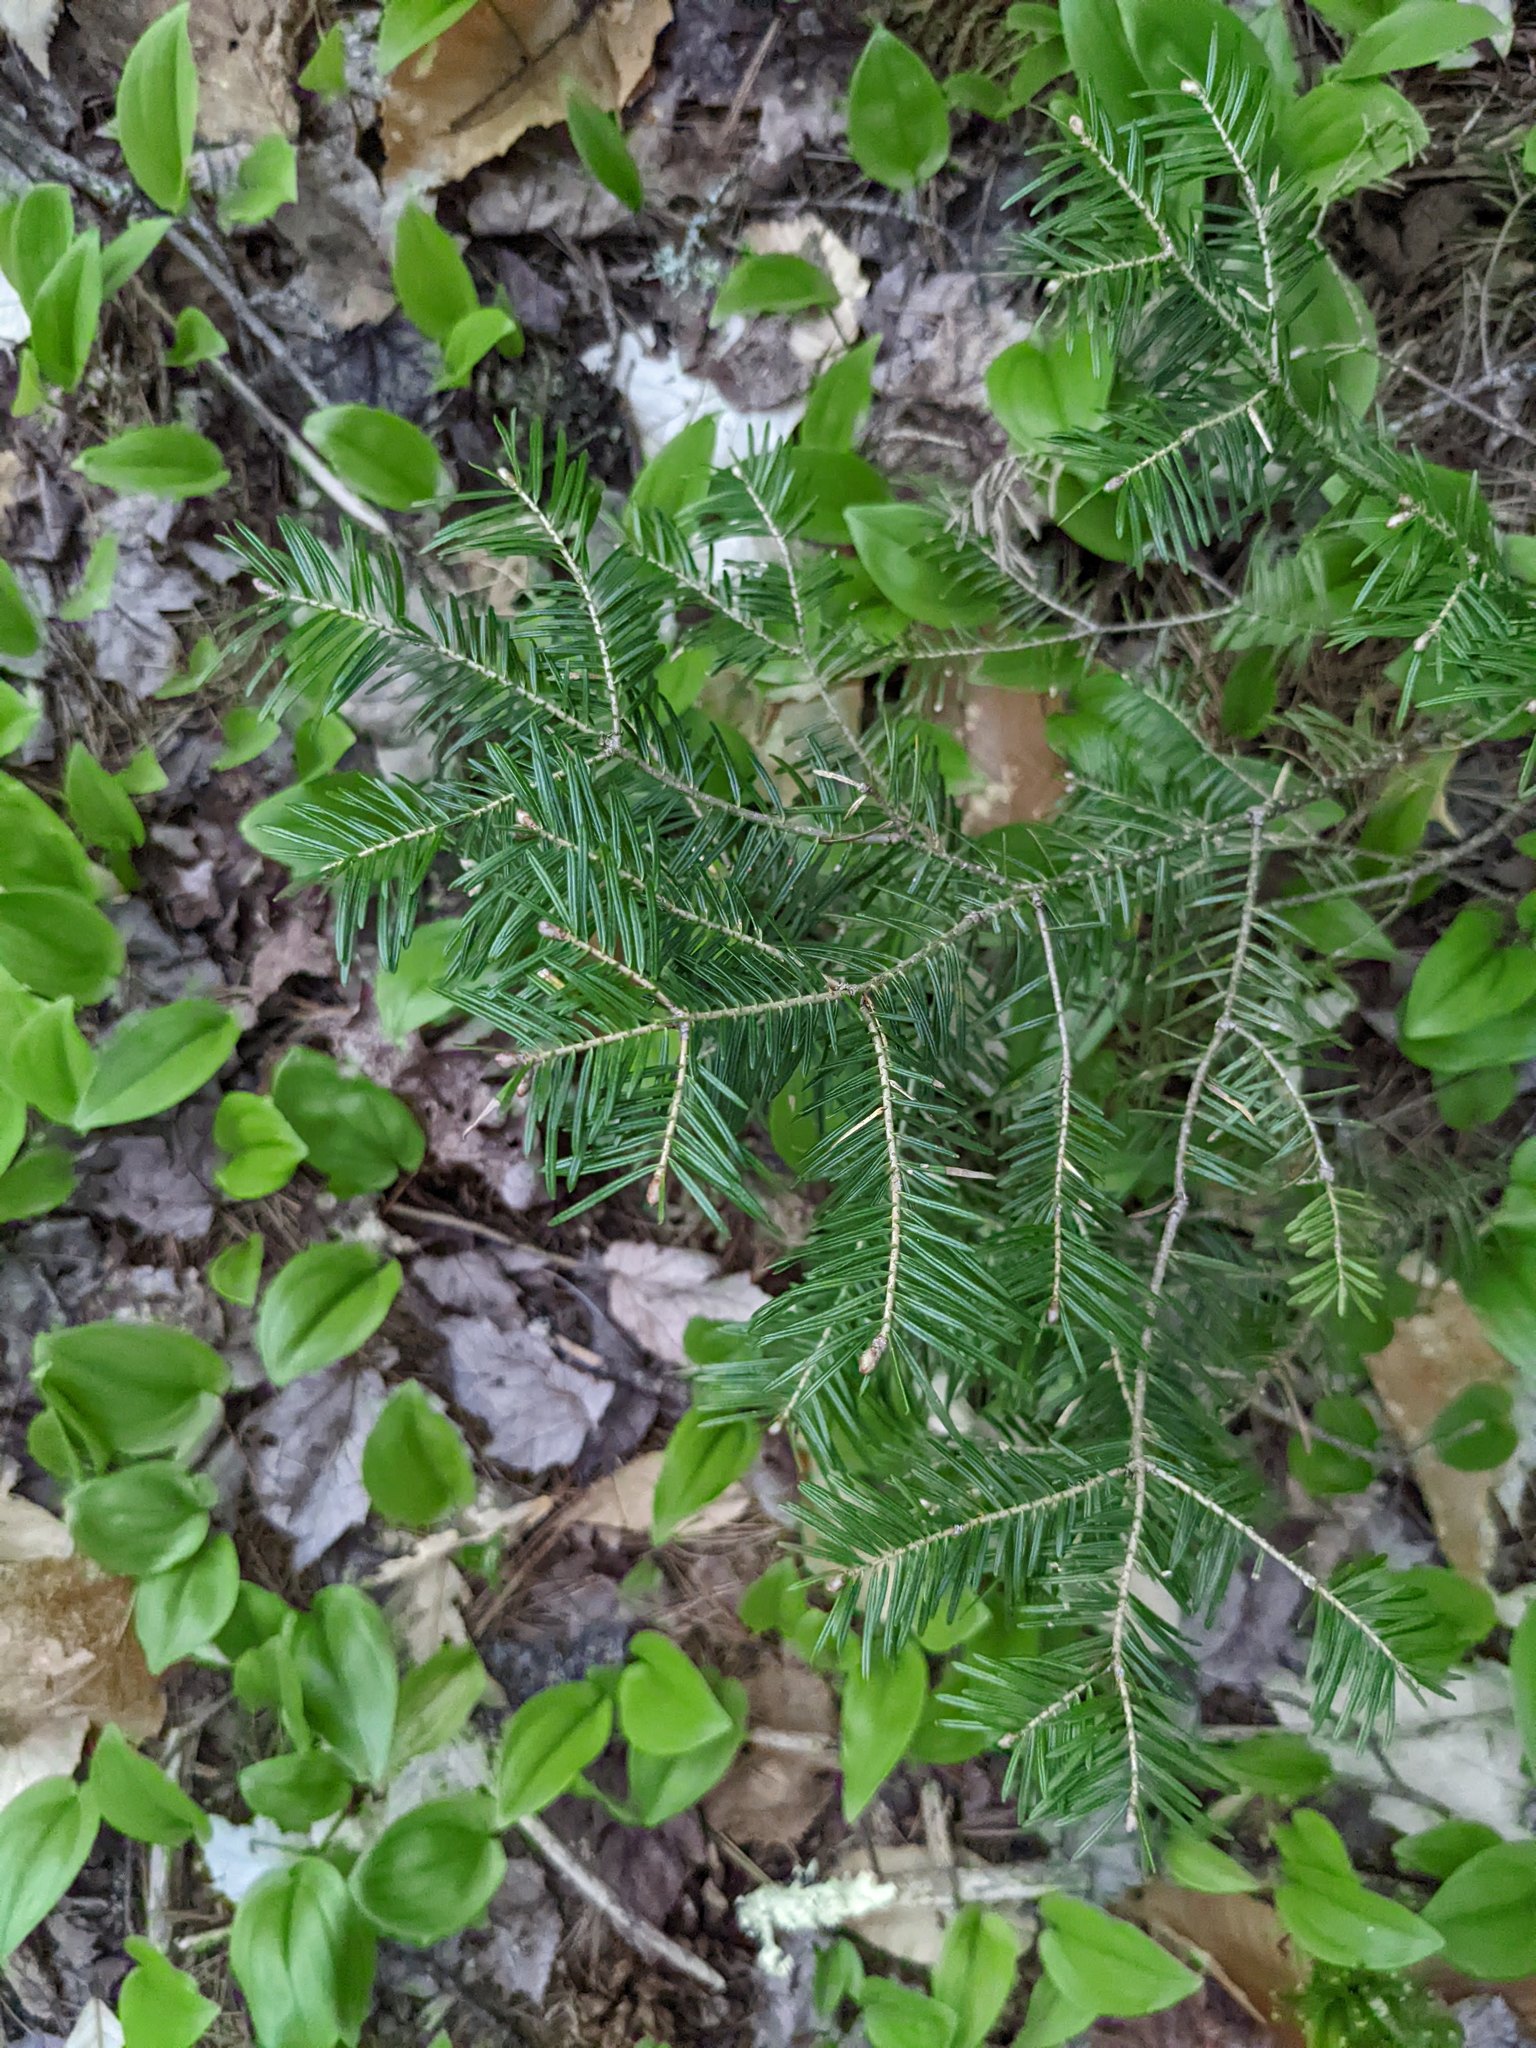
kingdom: Plantae
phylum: Tracheophyta
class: Liliopsida
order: Asparagales
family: Asparagaceae
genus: Maianthemum
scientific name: Maianthemum canadense
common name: False lily-of-the-valley
